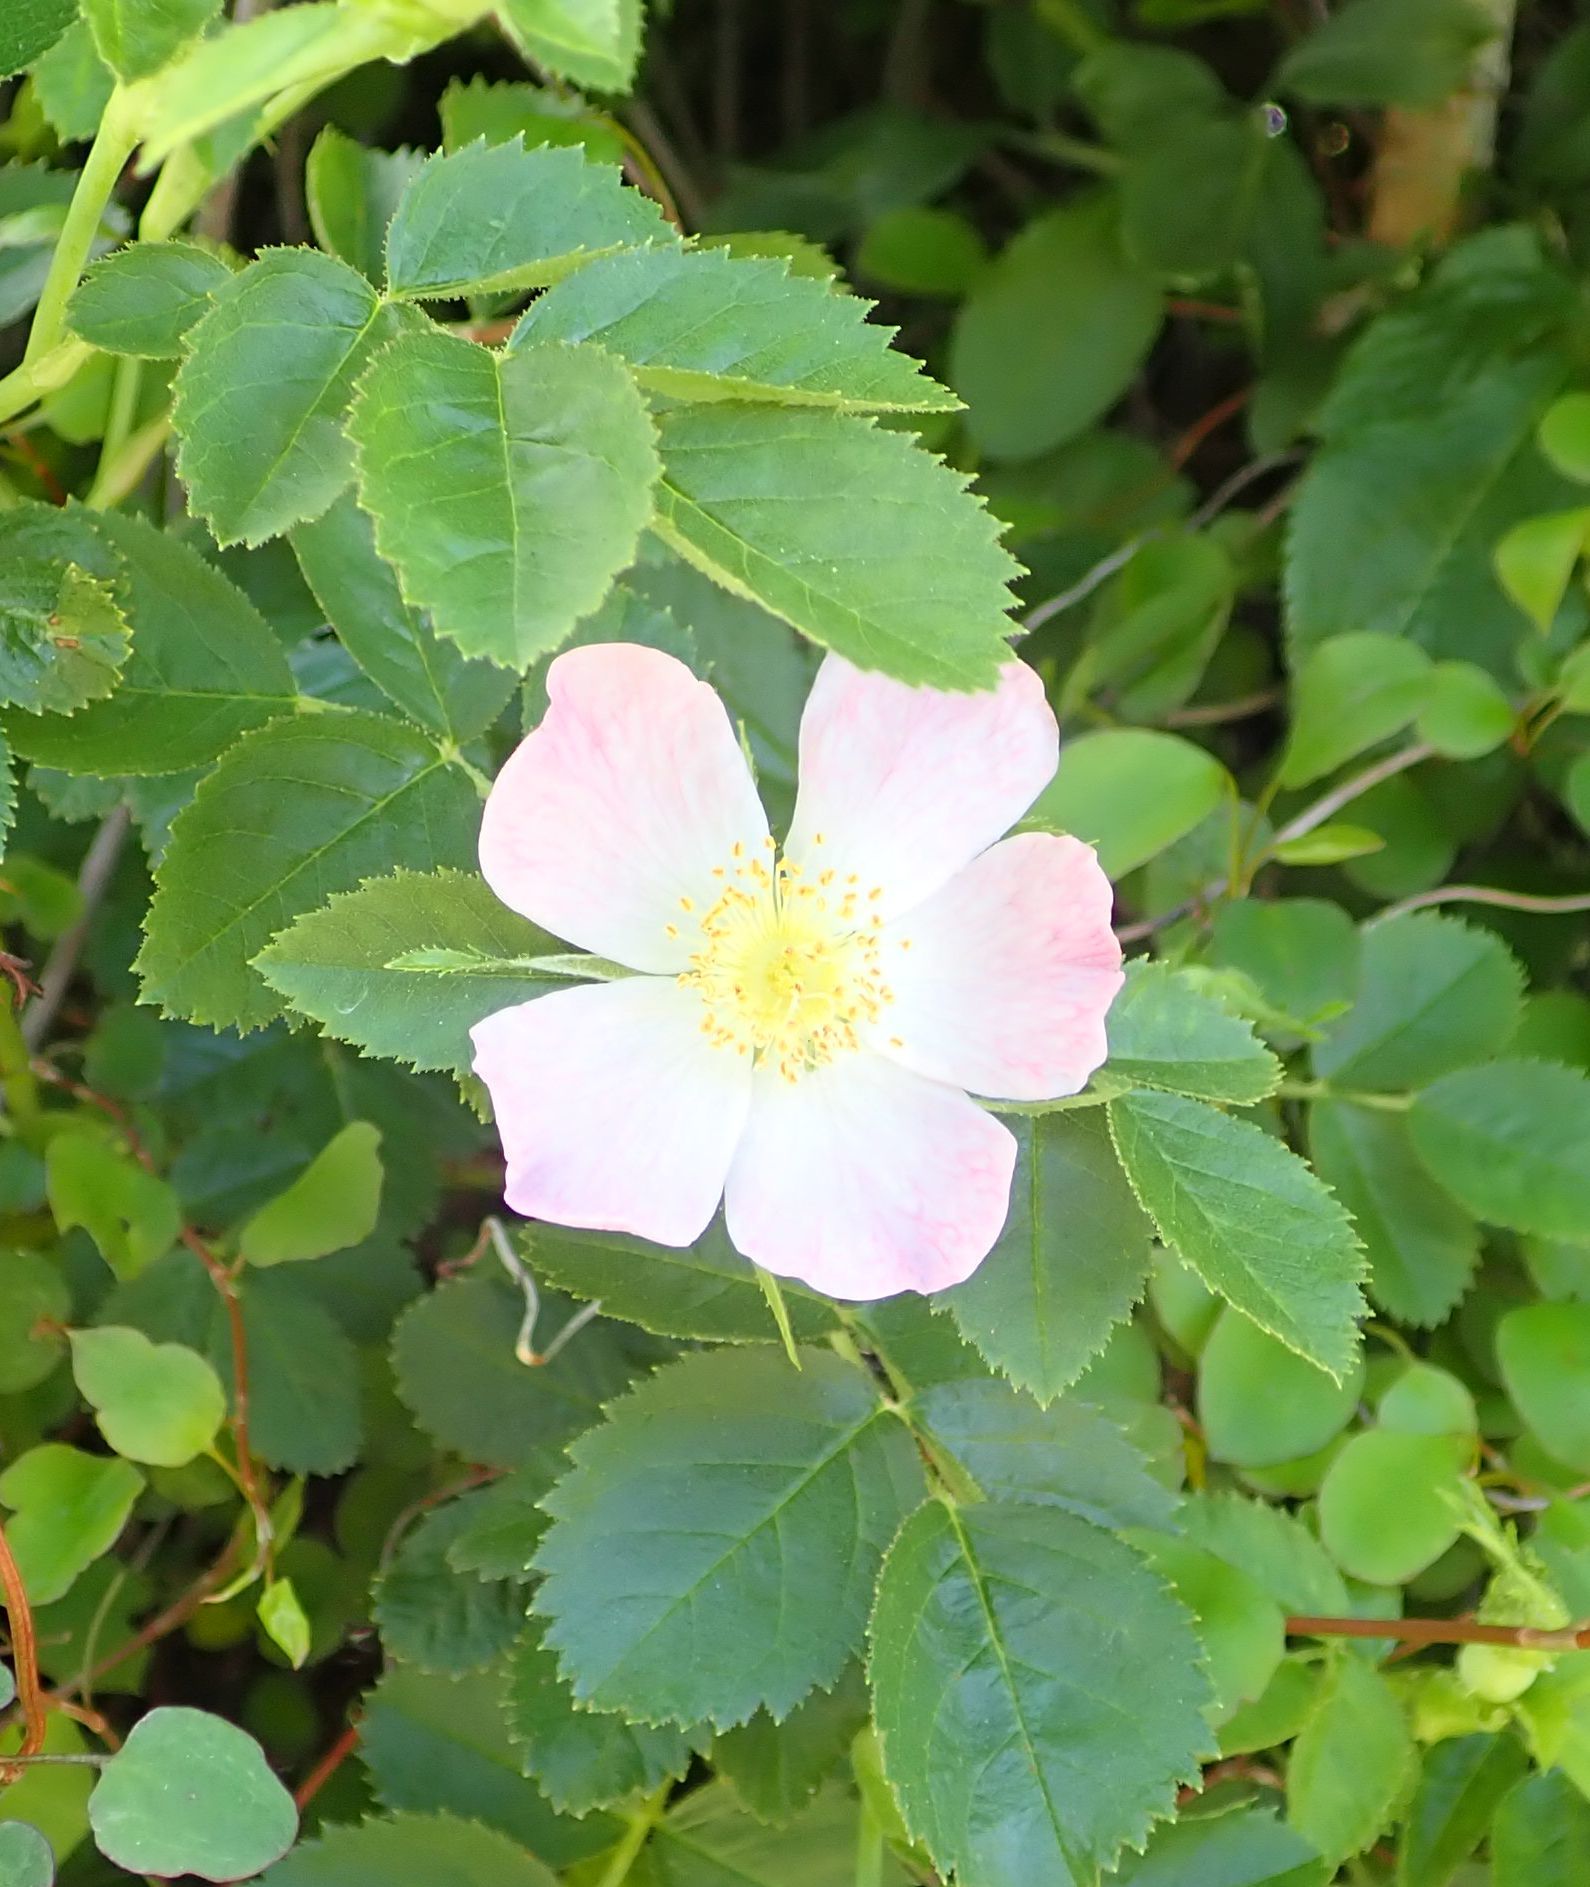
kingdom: Plantae
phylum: Tracheophyta
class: Magnoliopsida
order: Rosales
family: Rosaceae
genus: Rosa
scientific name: Rosa rubiginosa
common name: Sweet-briar
